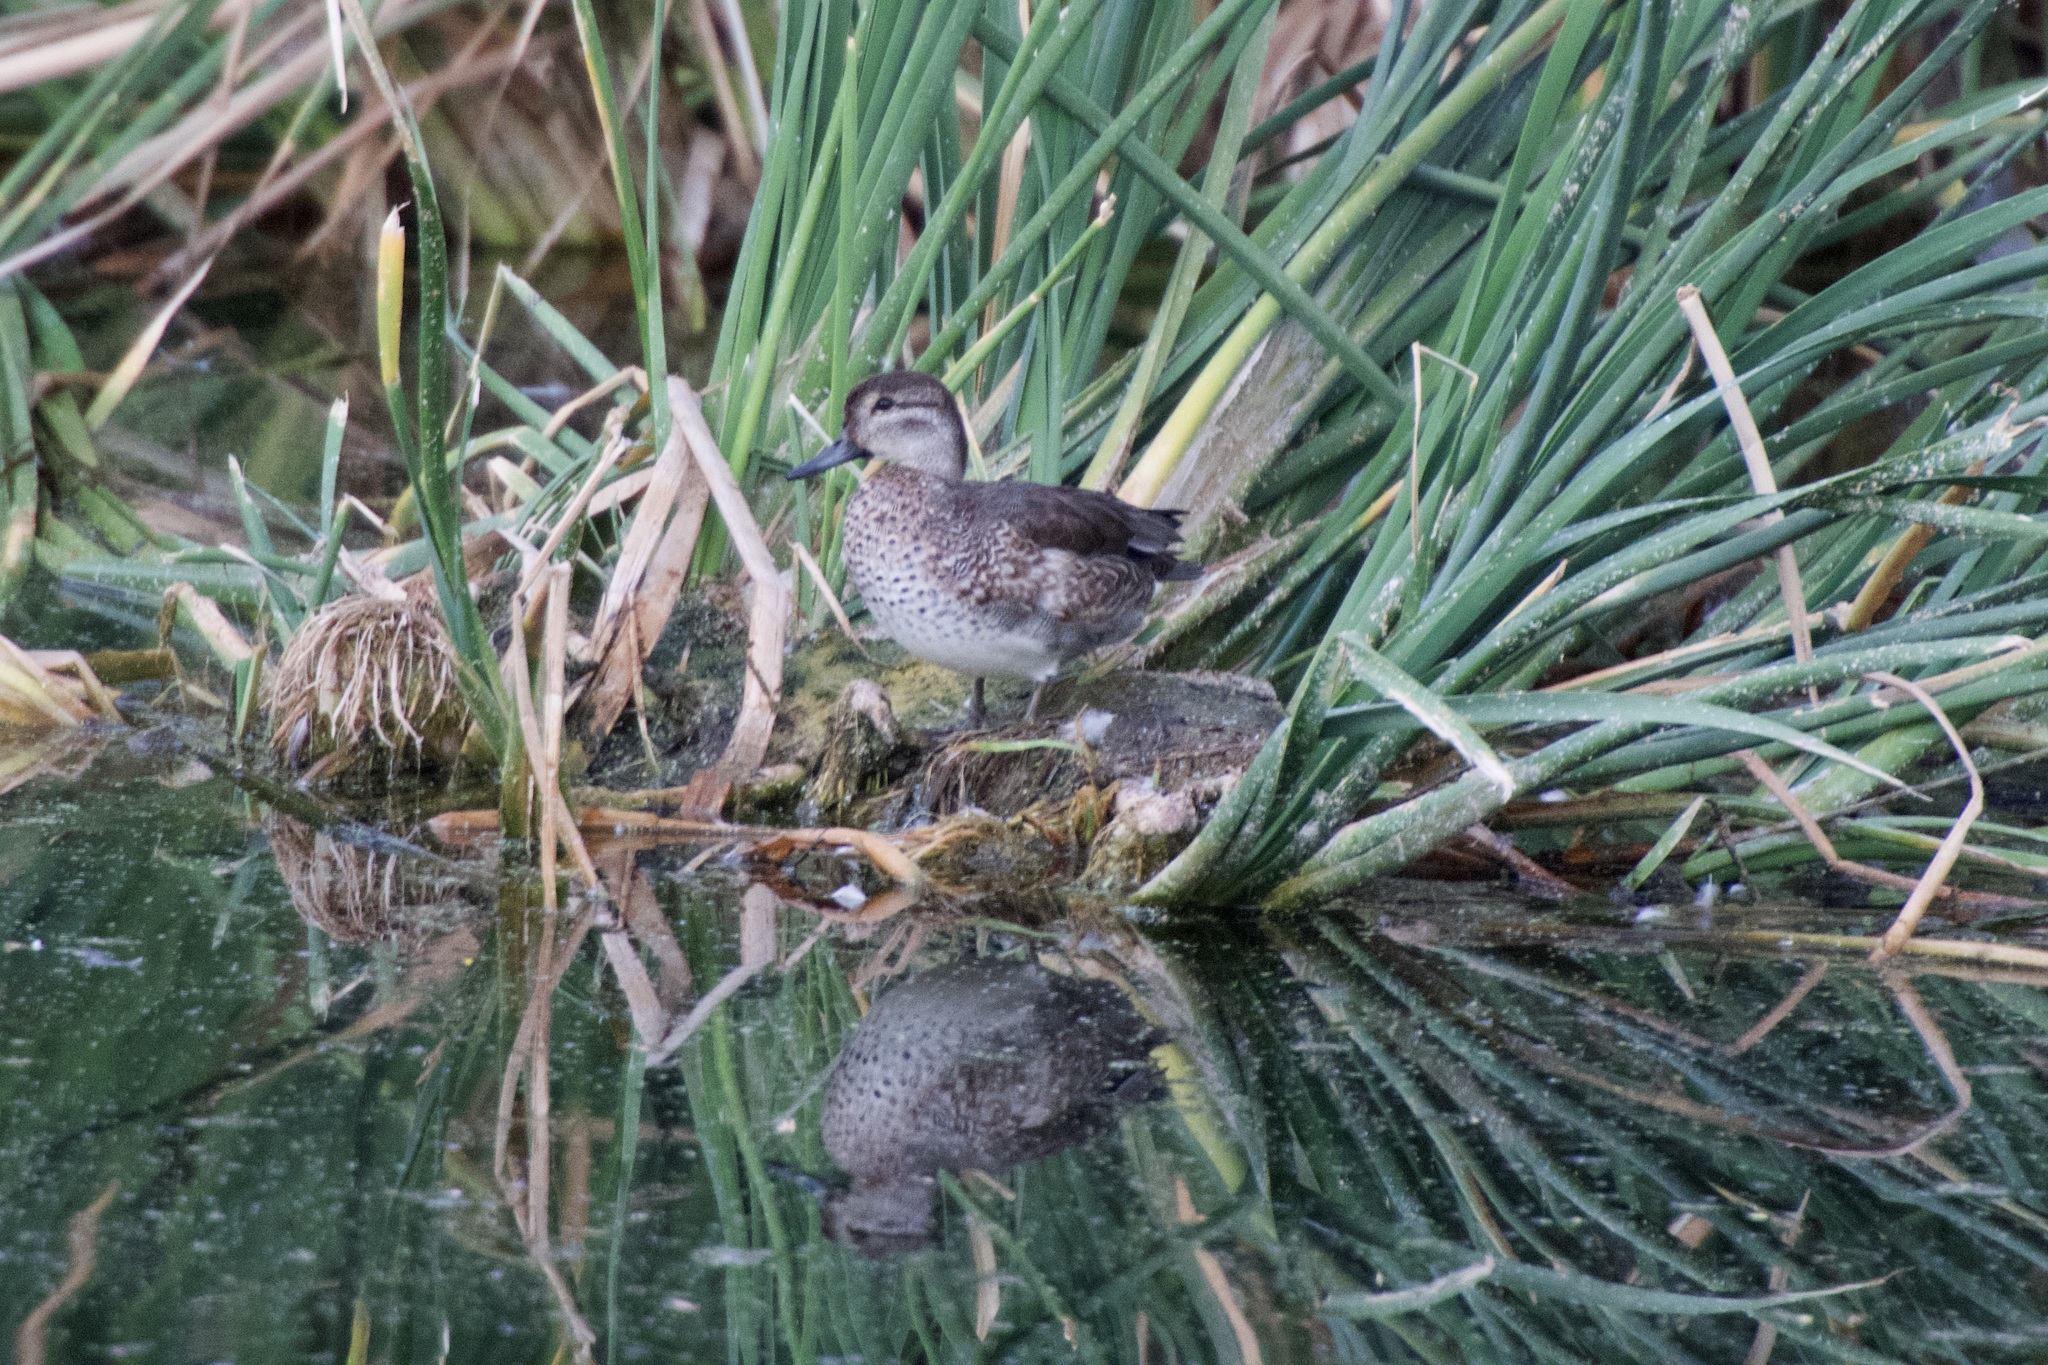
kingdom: Animalia
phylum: Chordata
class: Aves
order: Anseriformes
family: Anatidae
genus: Anas
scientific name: Anas crecca
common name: Eurasian teal
